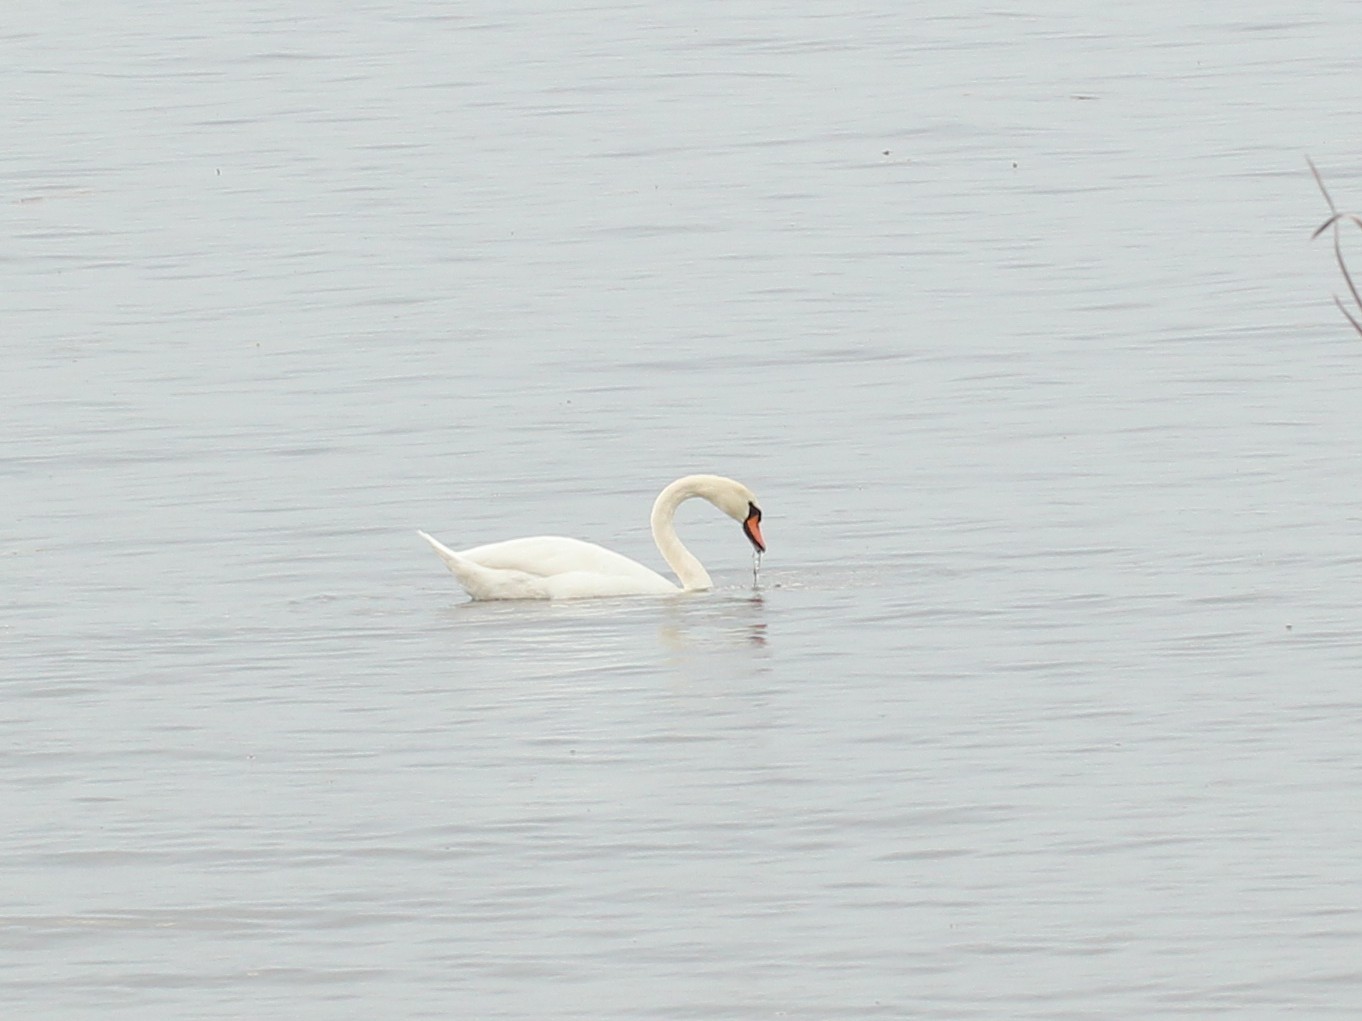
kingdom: Animalia
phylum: Chordata
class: Aves
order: Anseriformes
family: Anatidae
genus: Cygnus
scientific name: Cygnus olor
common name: Mute swan
